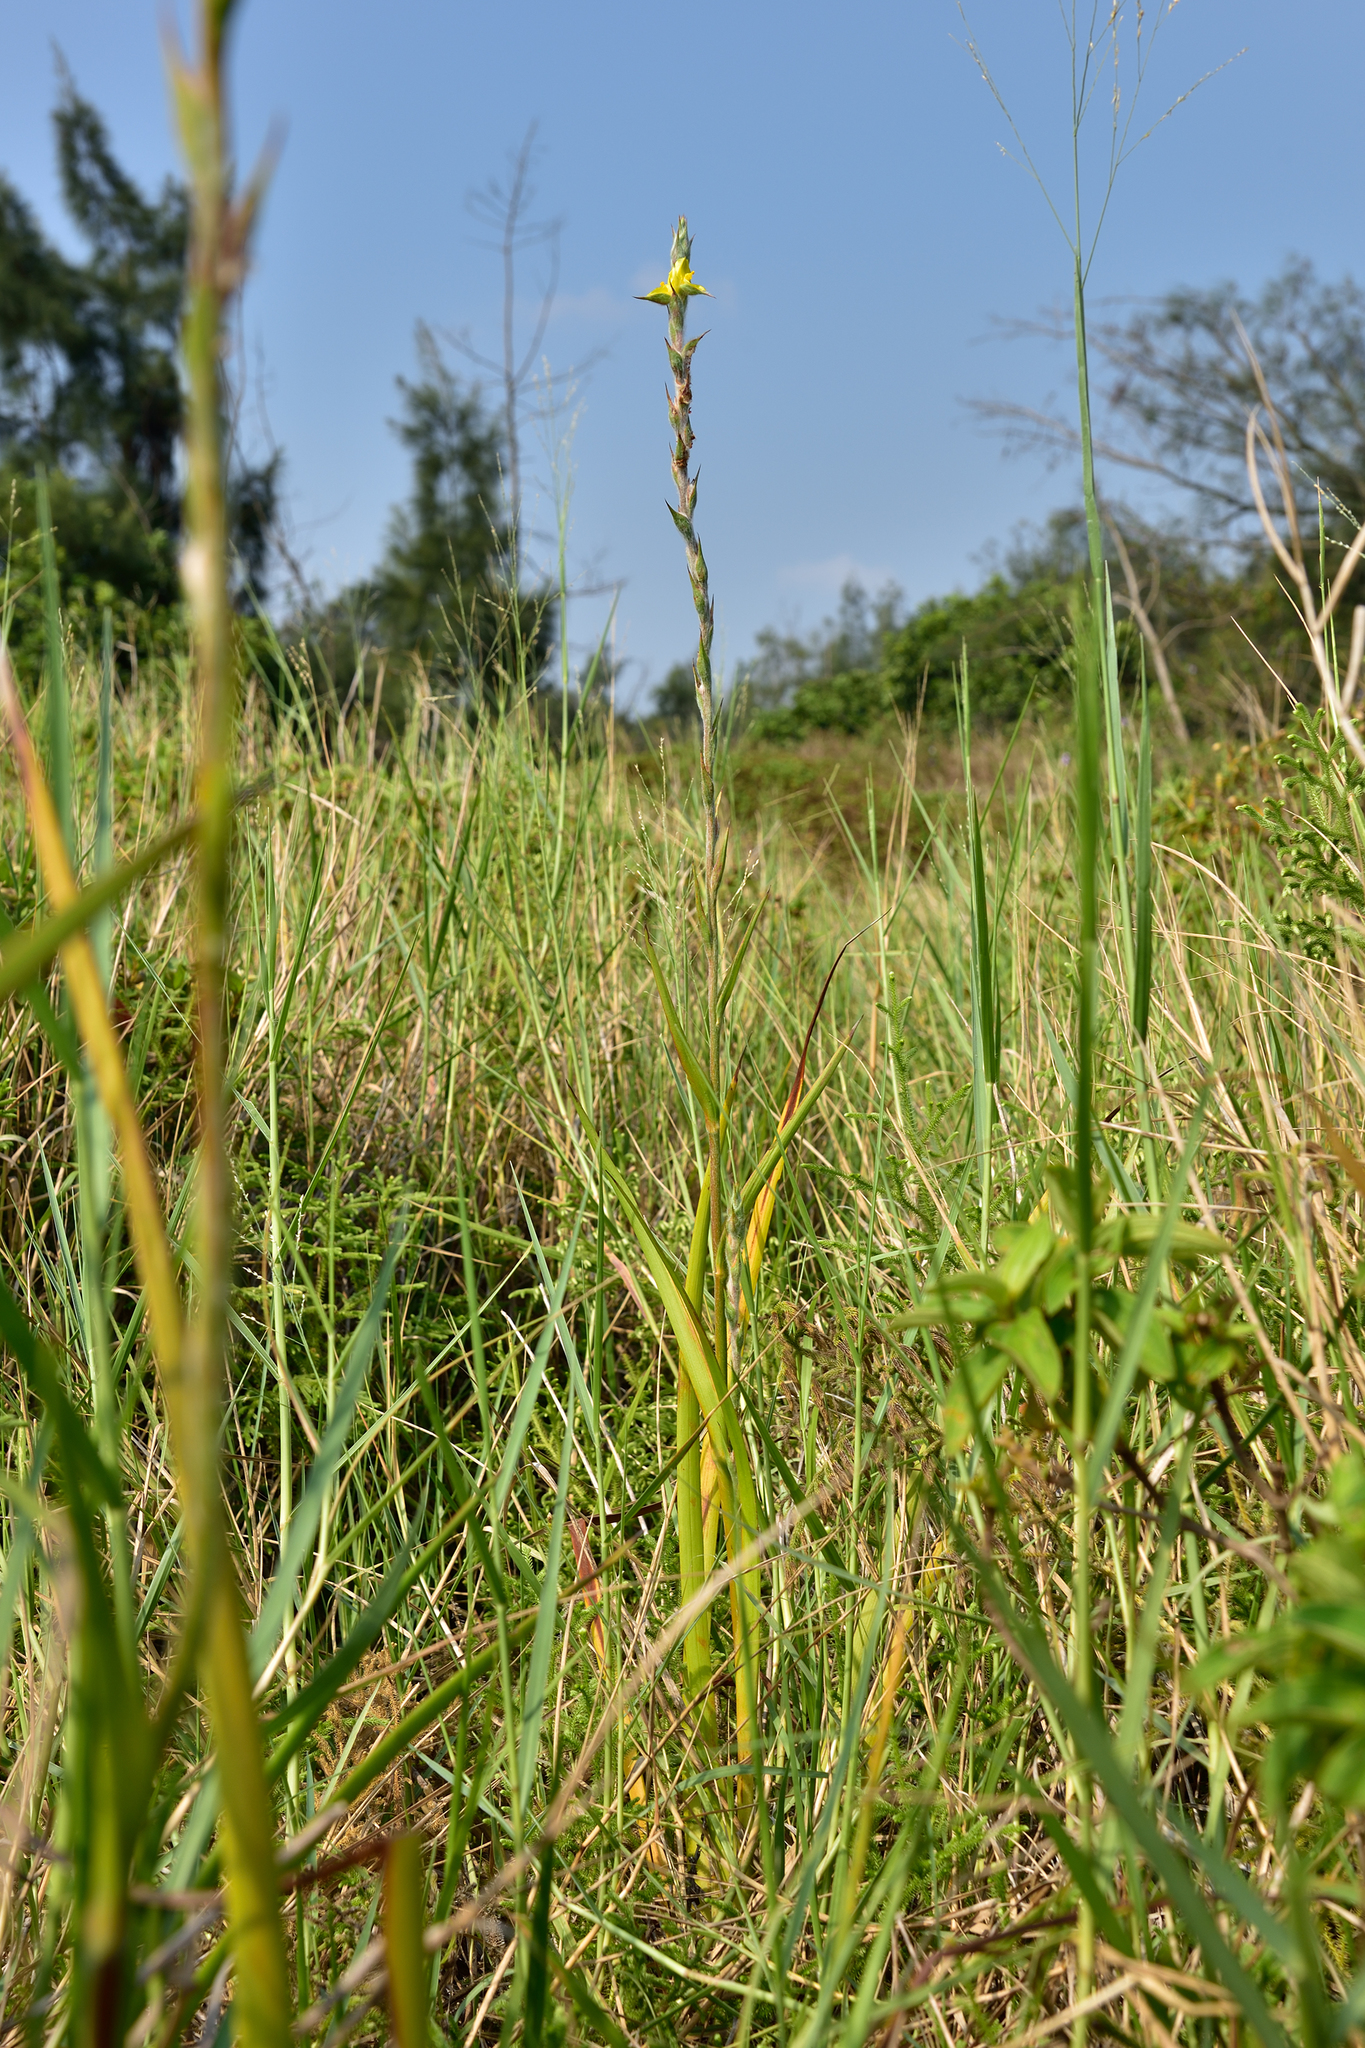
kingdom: Plantae
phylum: Tracheophyta
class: Liliopsida
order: Commelinales
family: Philydraceae
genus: Philydrum
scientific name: Philydrum lanuginosum
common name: Woolly frog's mouth
